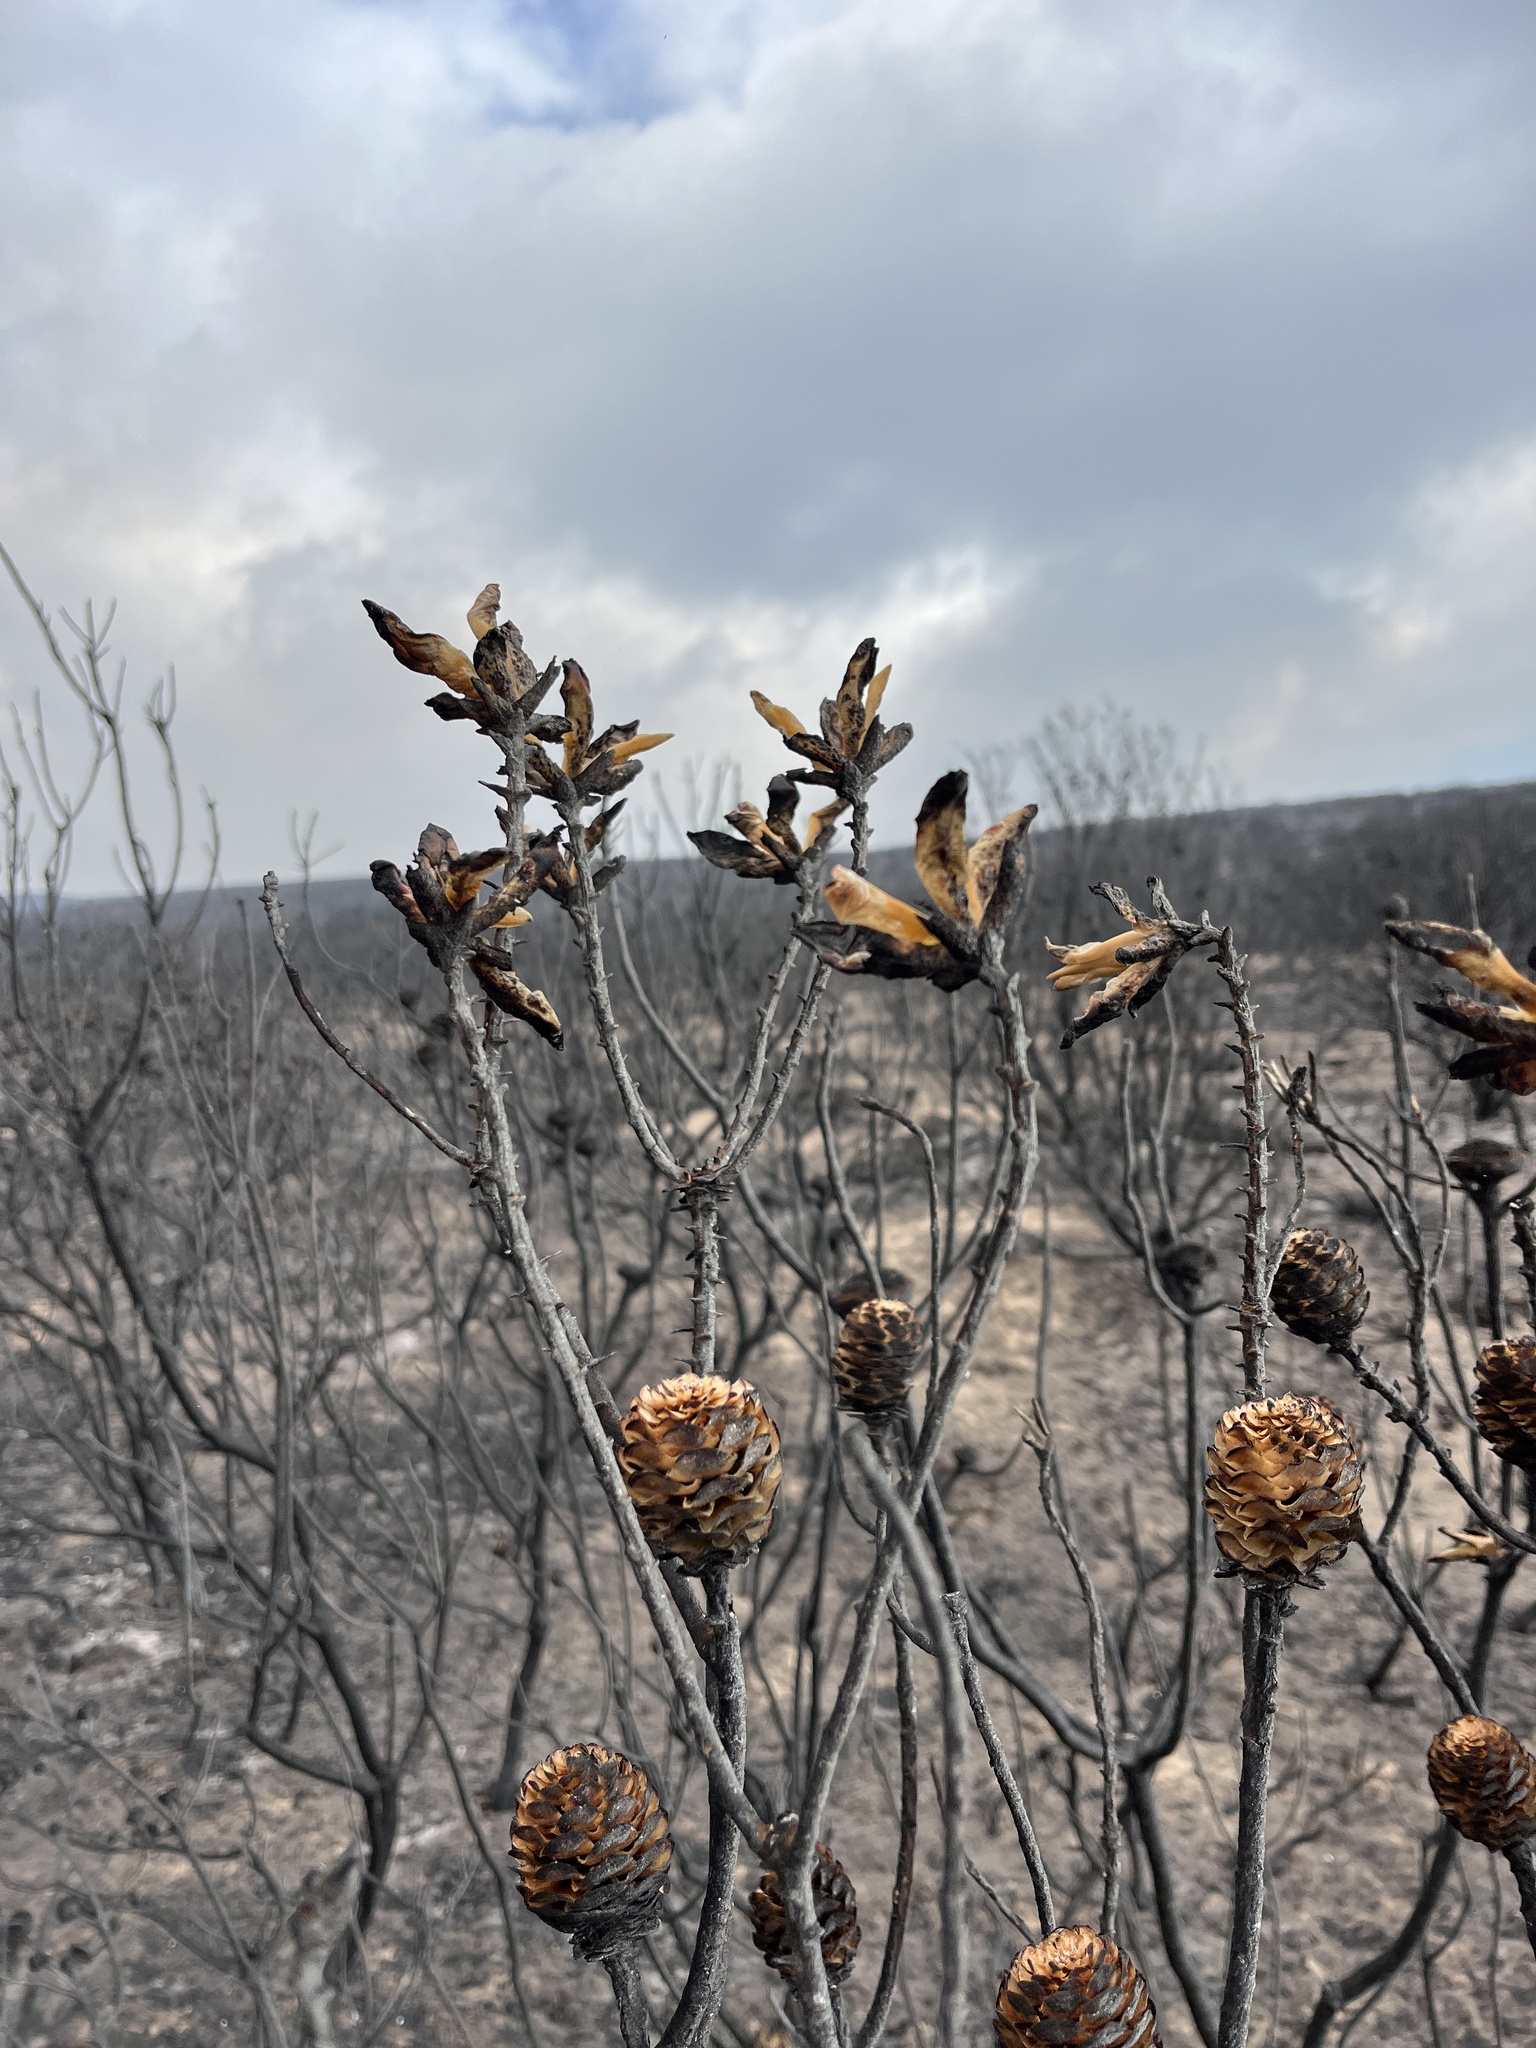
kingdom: Plantae
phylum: Tracheophyta
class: Magnoliopsida
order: Proteales
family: Proteaceae
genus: Leucadendron
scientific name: Leucadendron laureolum
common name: Golden sunshinebush
